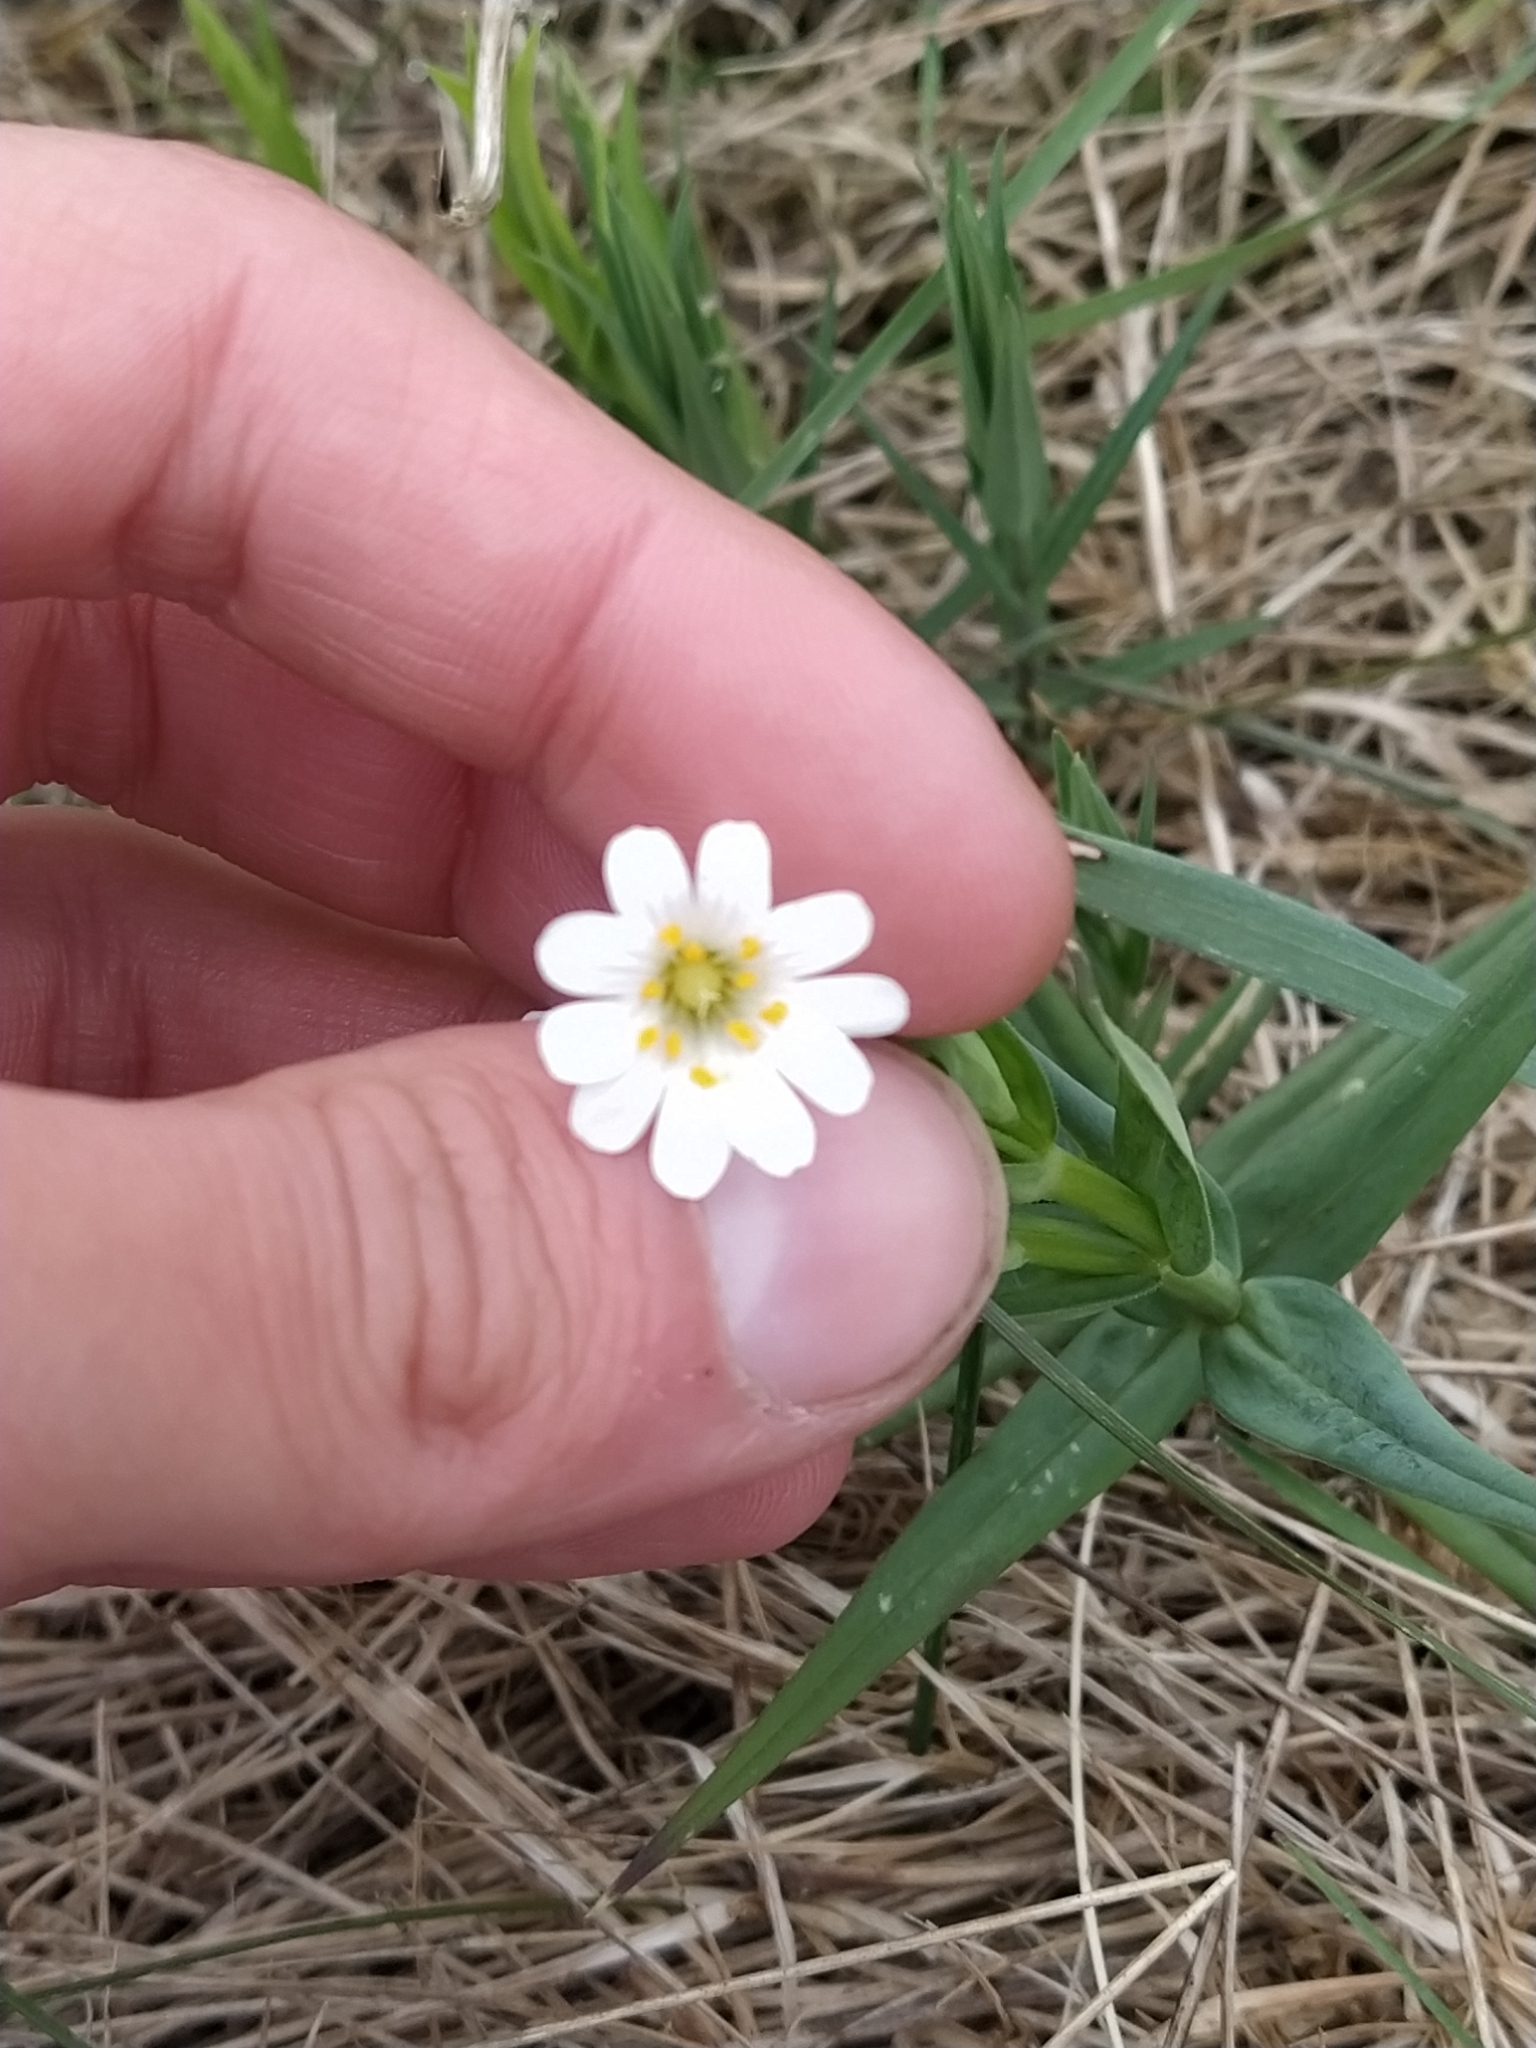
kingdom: Plantae
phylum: Tracheophyta
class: Magnoliopsida
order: Caryophyllales
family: Caryophyllaceae
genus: Rabelera
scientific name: Rabelera holostea
